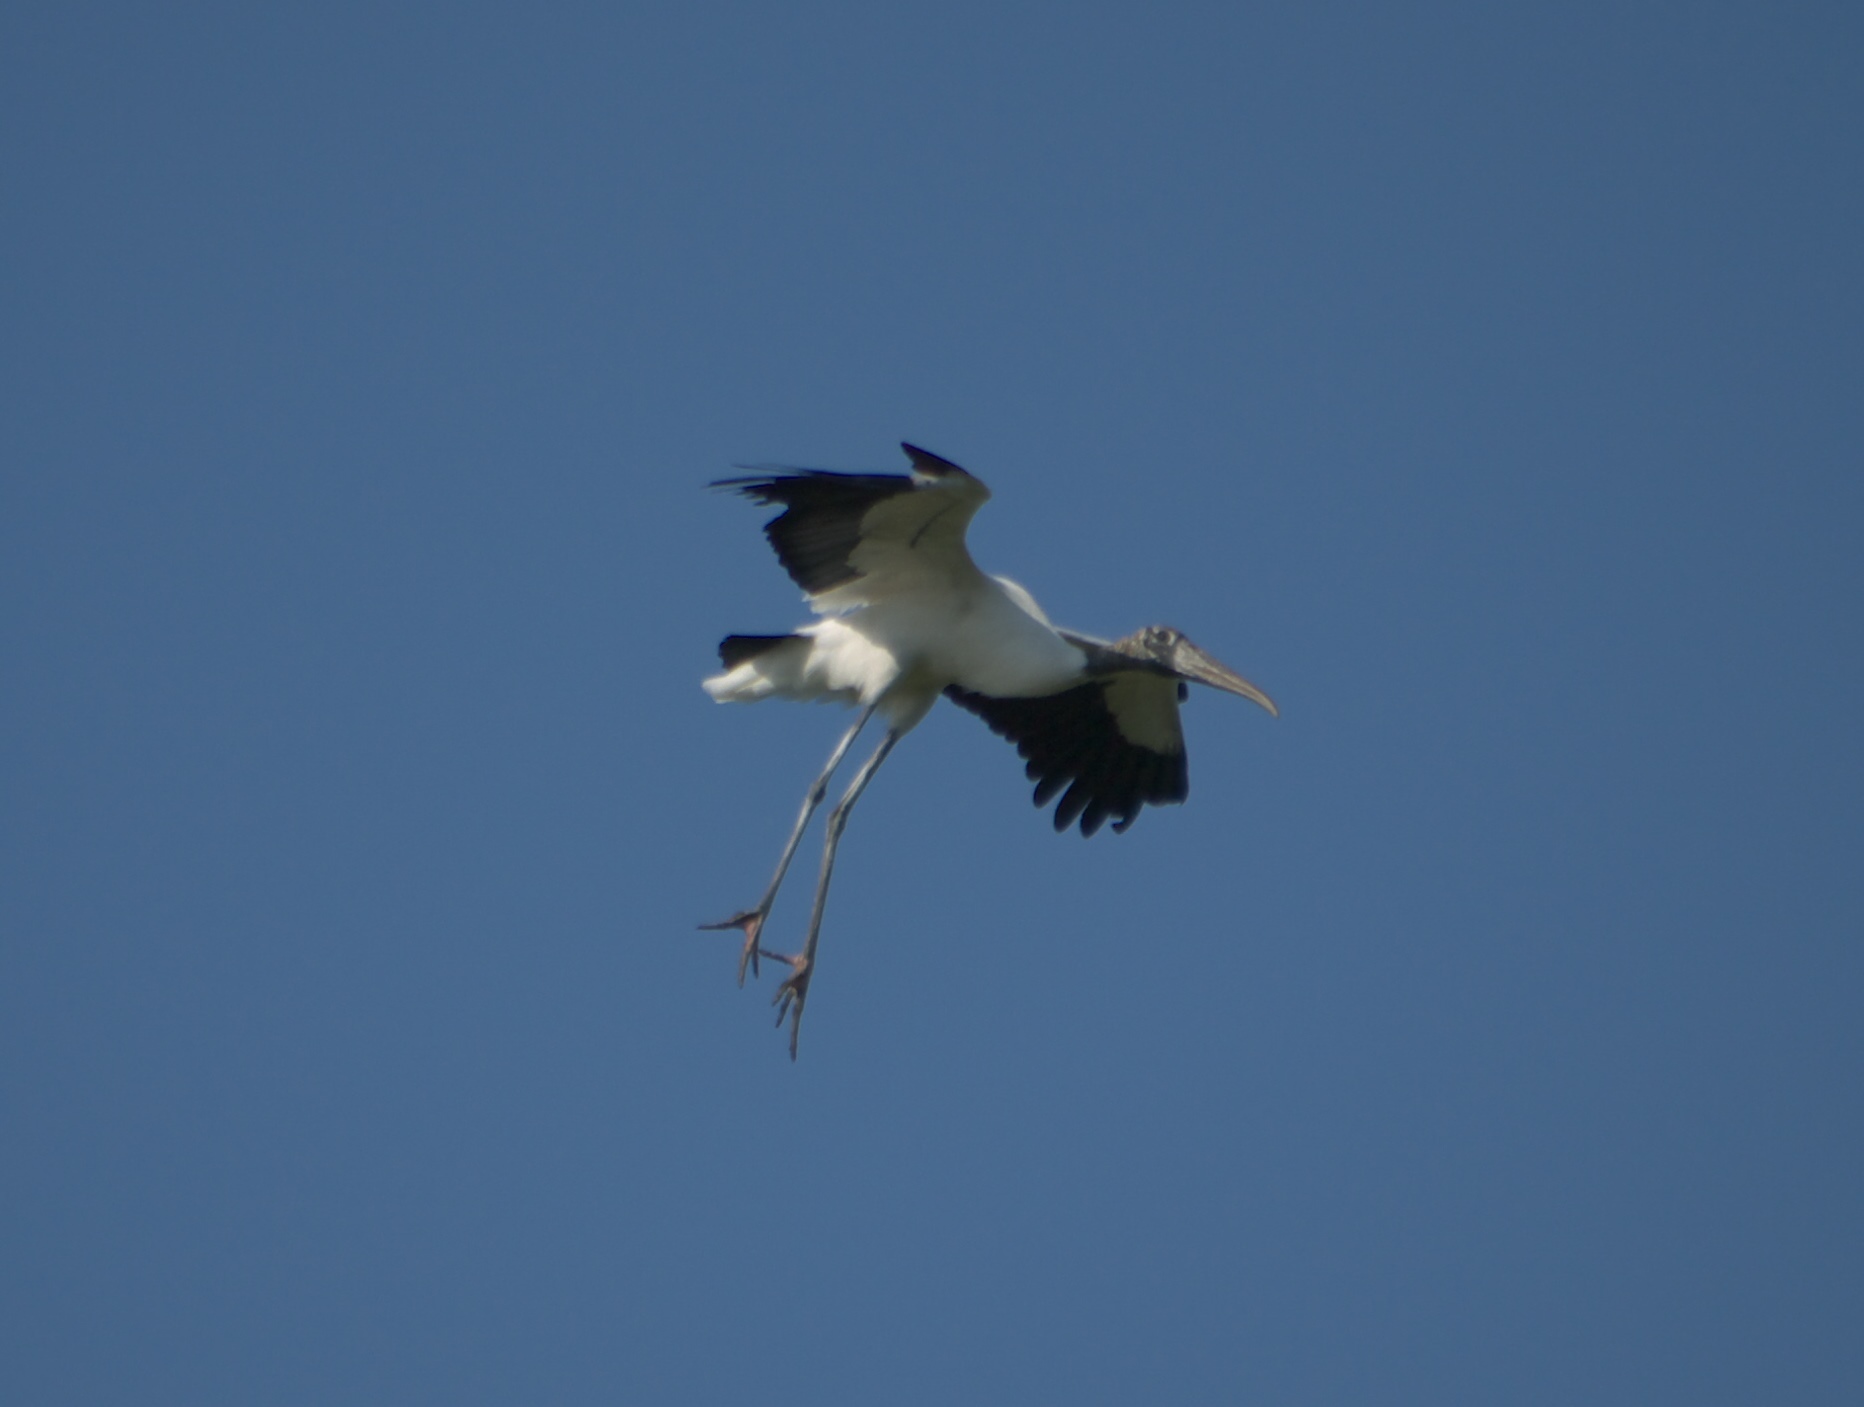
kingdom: Animalia
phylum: Chordata
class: Aves
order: Ciconiiformes
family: Ciconiidae
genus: Mycteria
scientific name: Mycteria americana
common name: Wood stork
